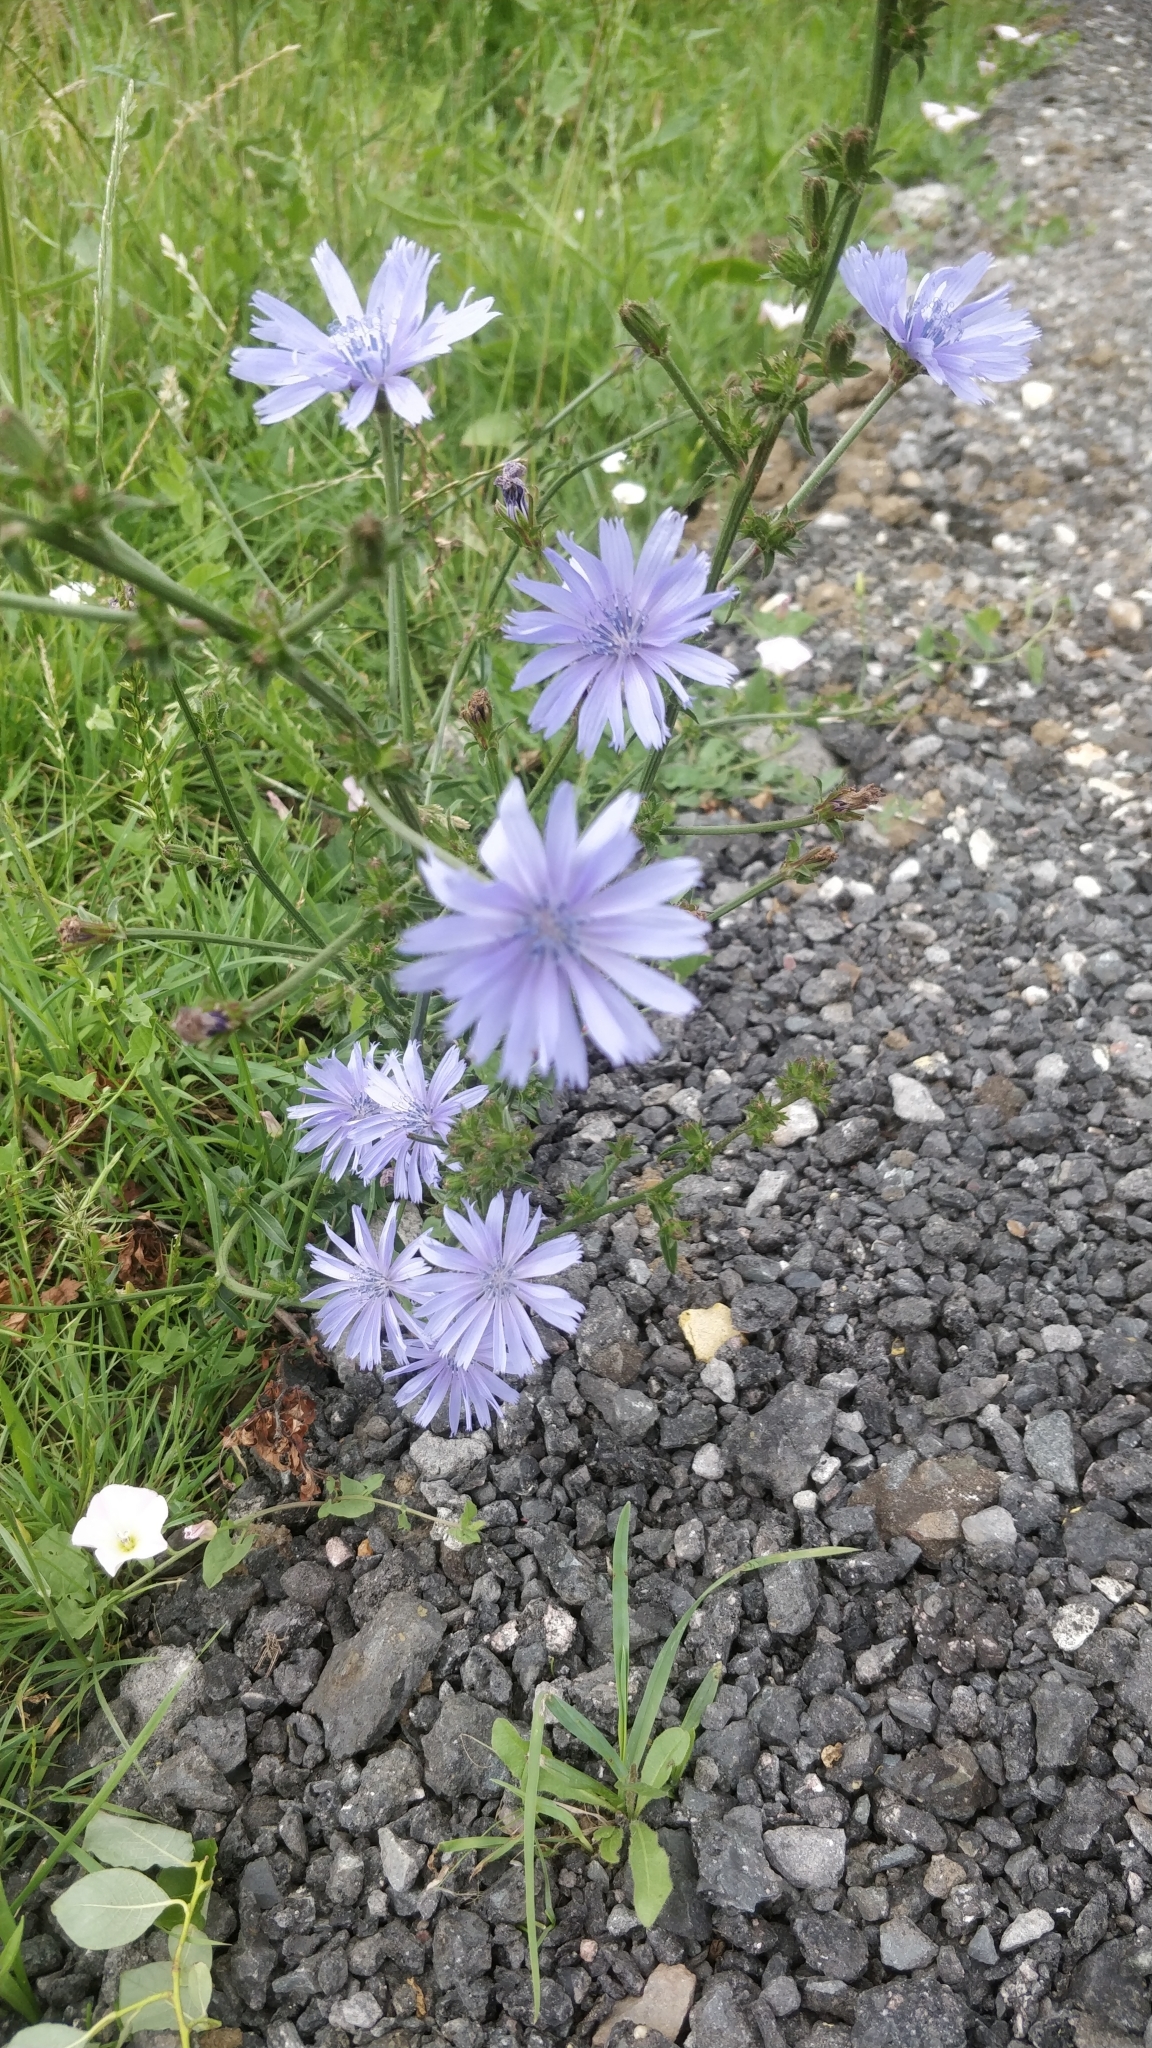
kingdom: Plantae
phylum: Tracheophyta
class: Magnoliopsida
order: Asterales
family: Asteraceae
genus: Cichorium
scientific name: Cichorium intybus
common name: Chicory
